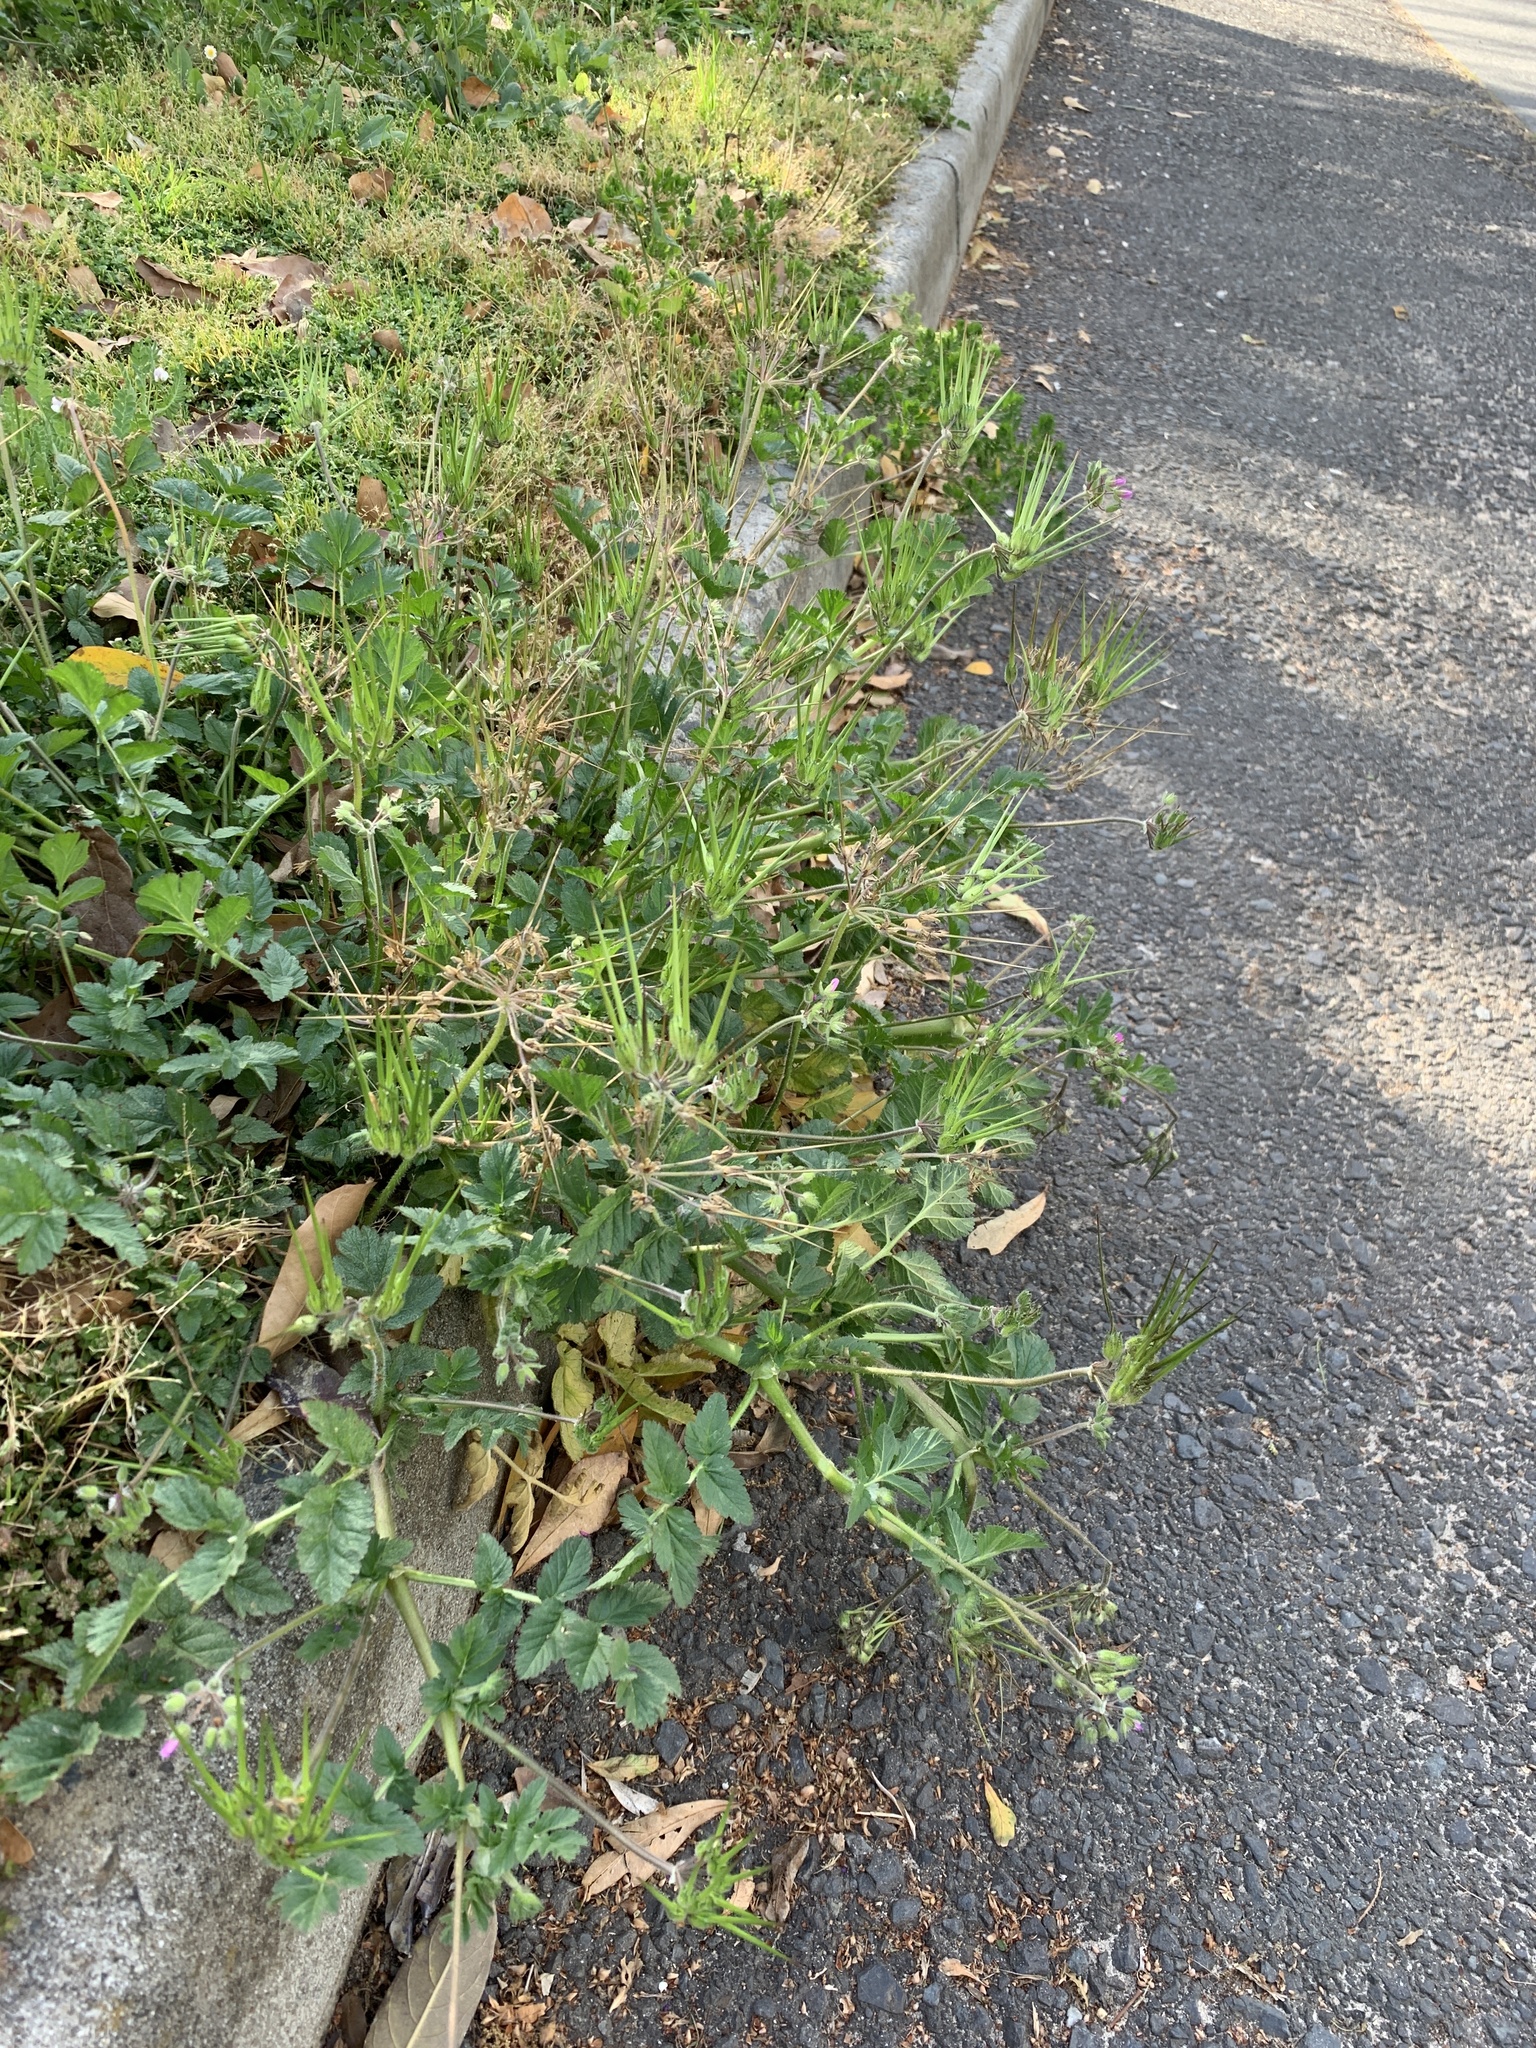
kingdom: Plantae
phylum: Tracheophyta
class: Magnoliopsida
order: Geraniales
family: Geraniaceae
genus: Erodium
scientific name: Erodium moschatum
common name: Musk stork's-bill
